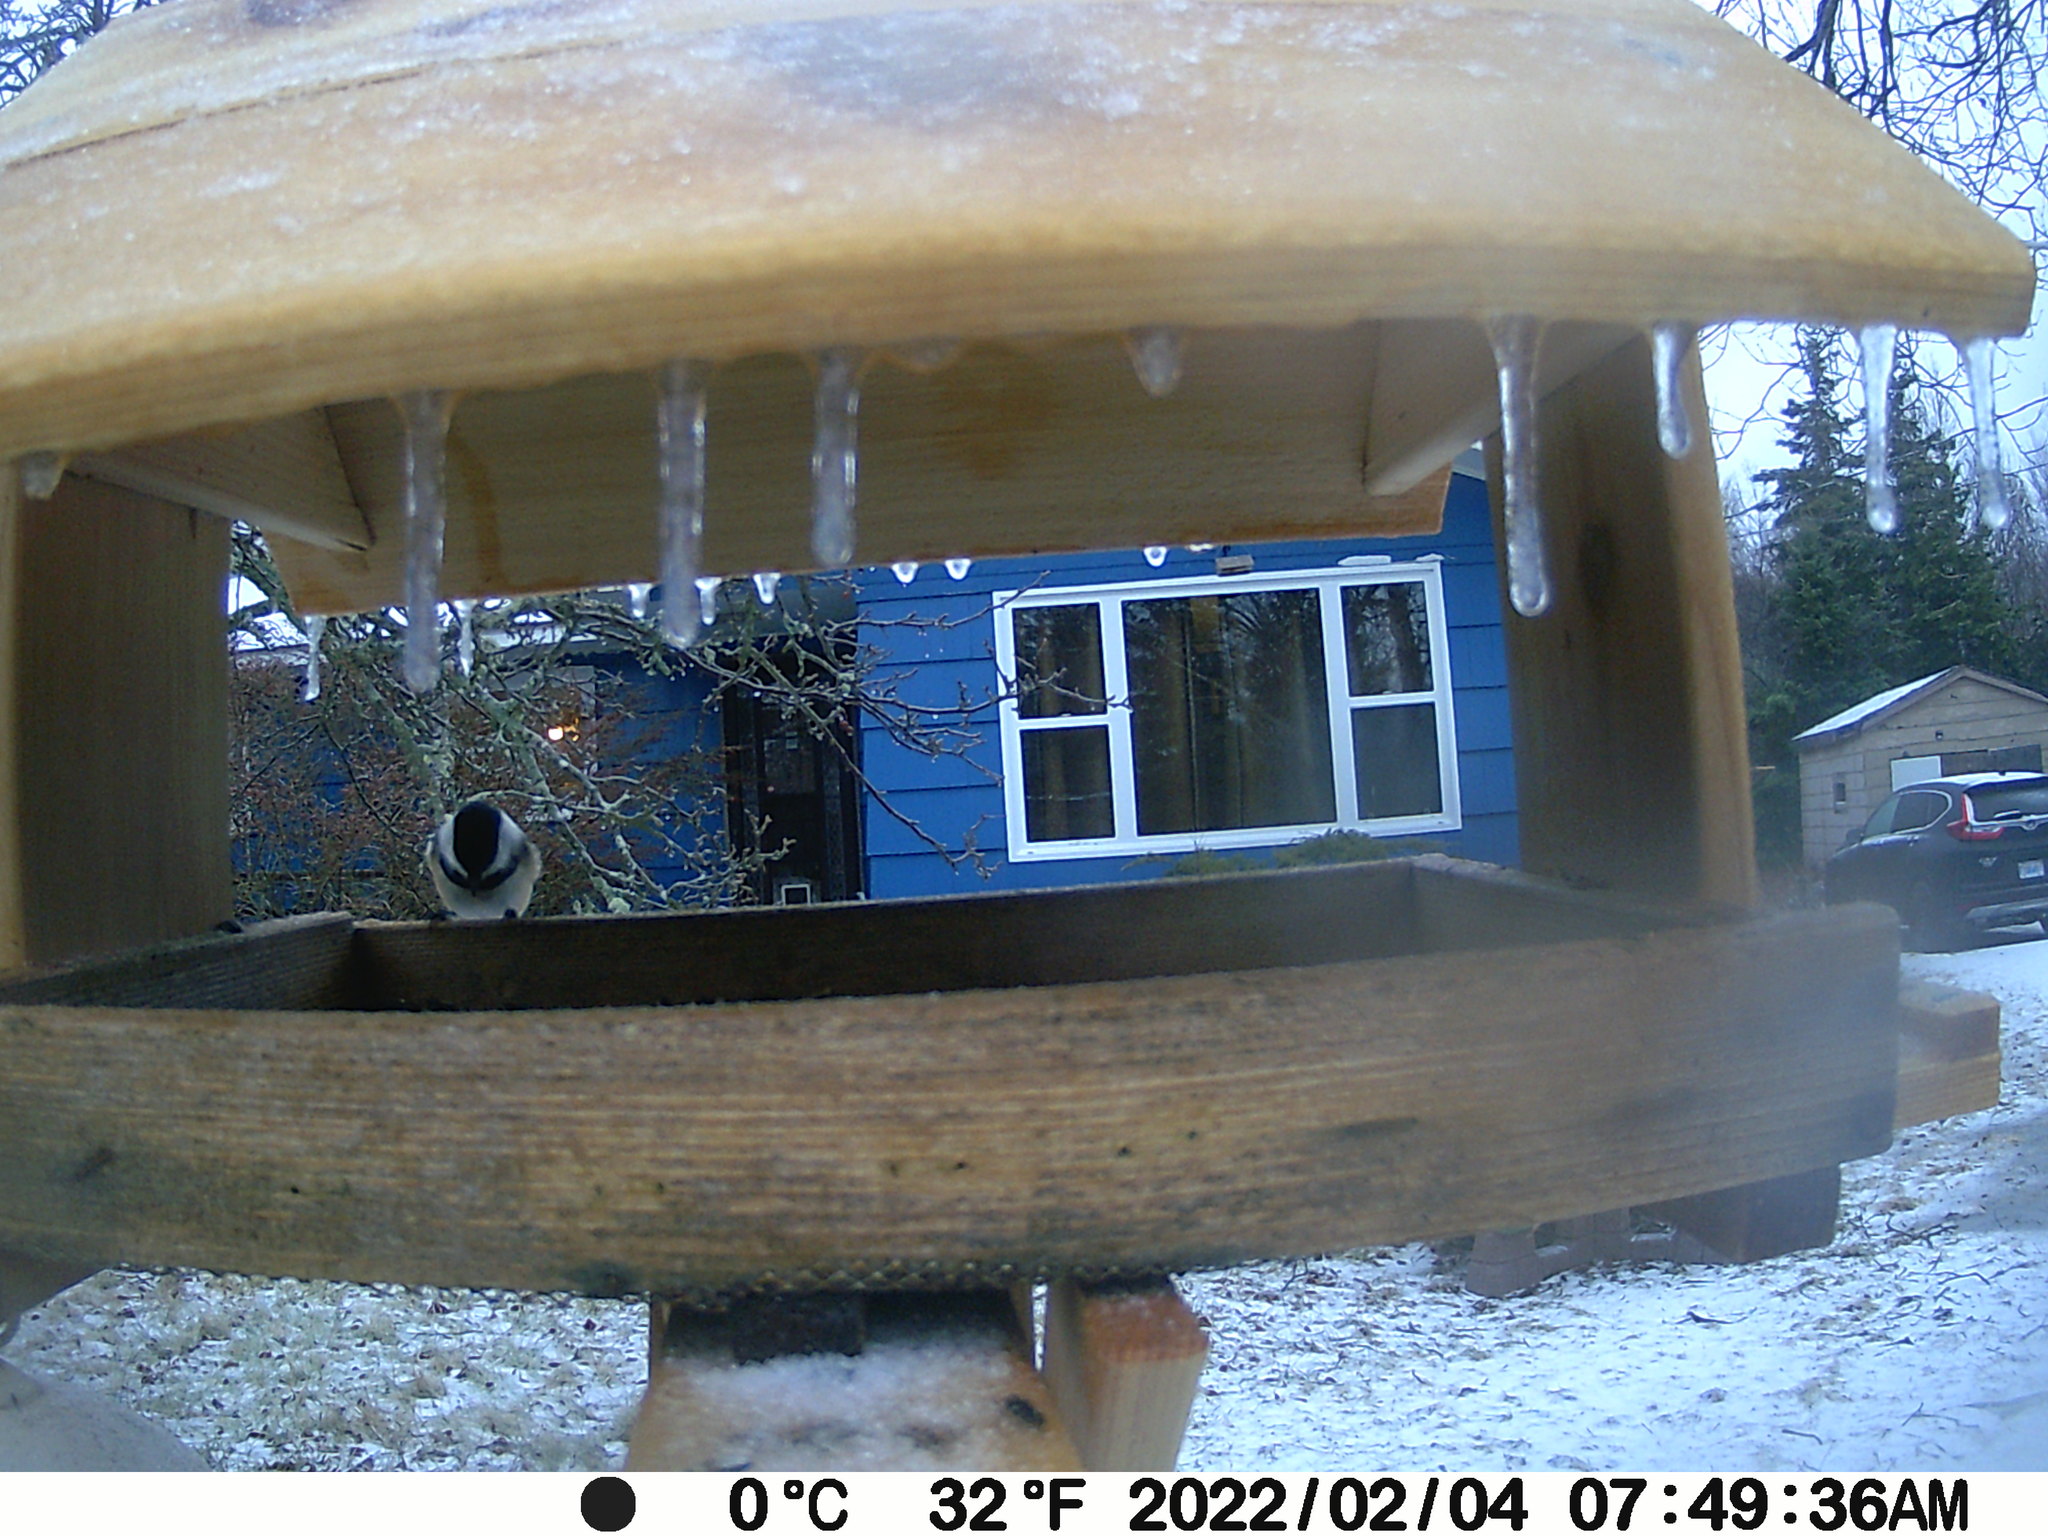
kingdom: Animalia
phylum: Chordata
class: Aves
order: Passeriformes
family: Paridae
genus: Poecile
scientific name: Poecile atricapillus
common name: Black-capped chickadee
